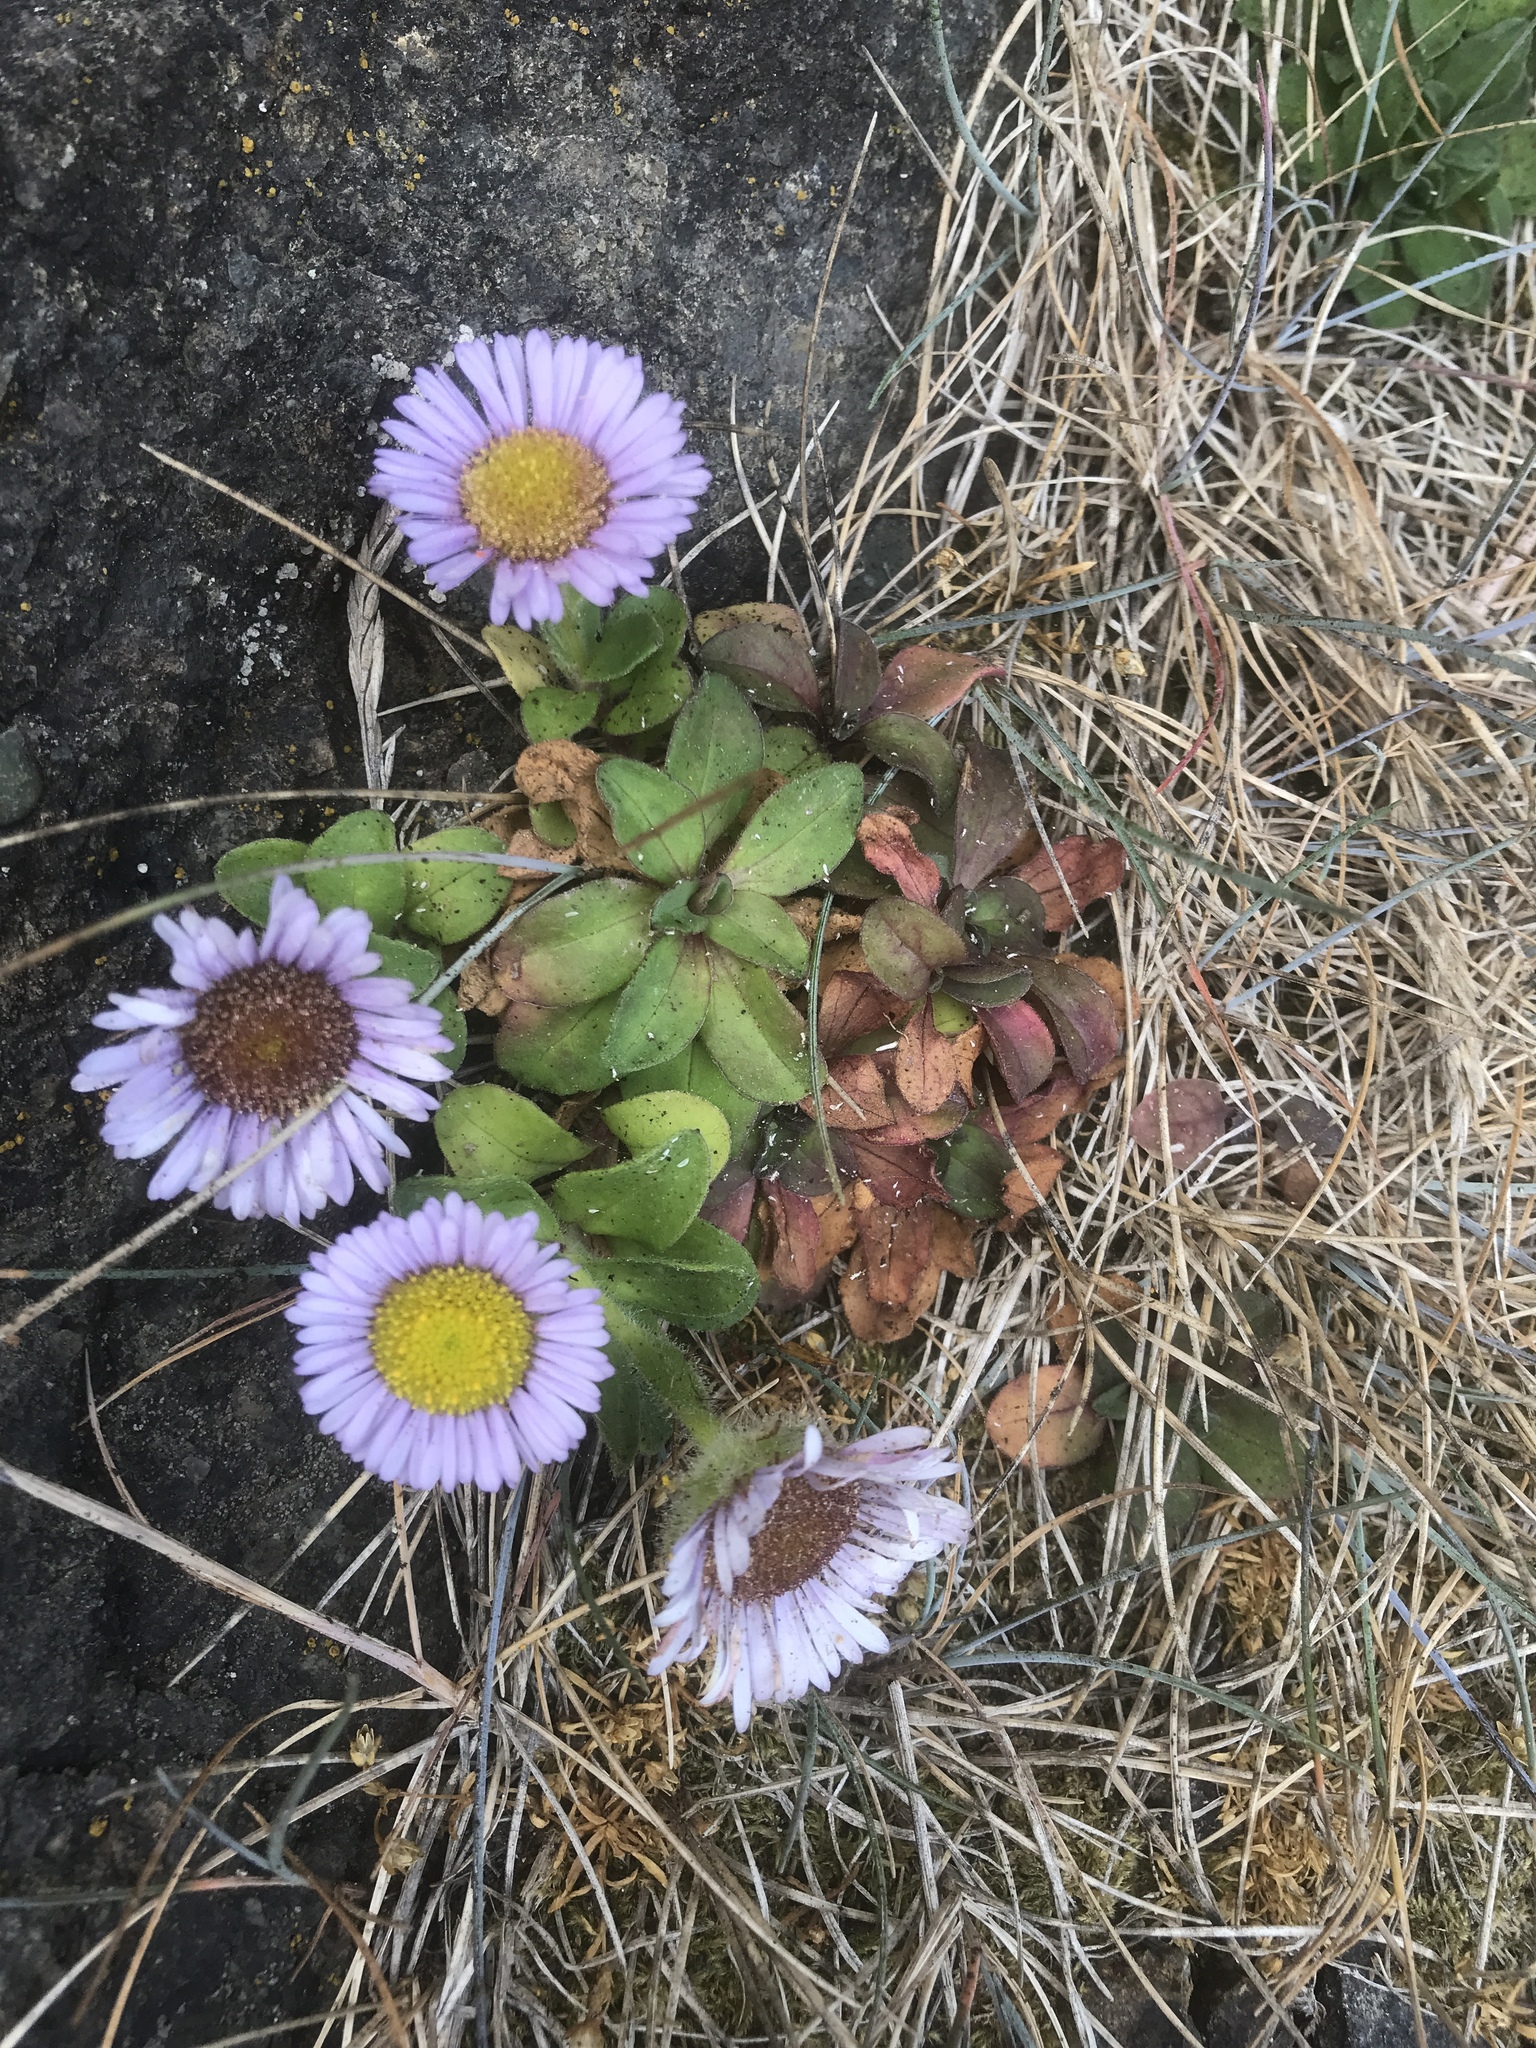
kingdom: Plantae
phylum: Tracheophyta
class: Magnoliopsida
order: Asterales
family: Asteraceae
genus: Erigeron
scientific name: Erigeron glaucus
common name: Seaside daisy
